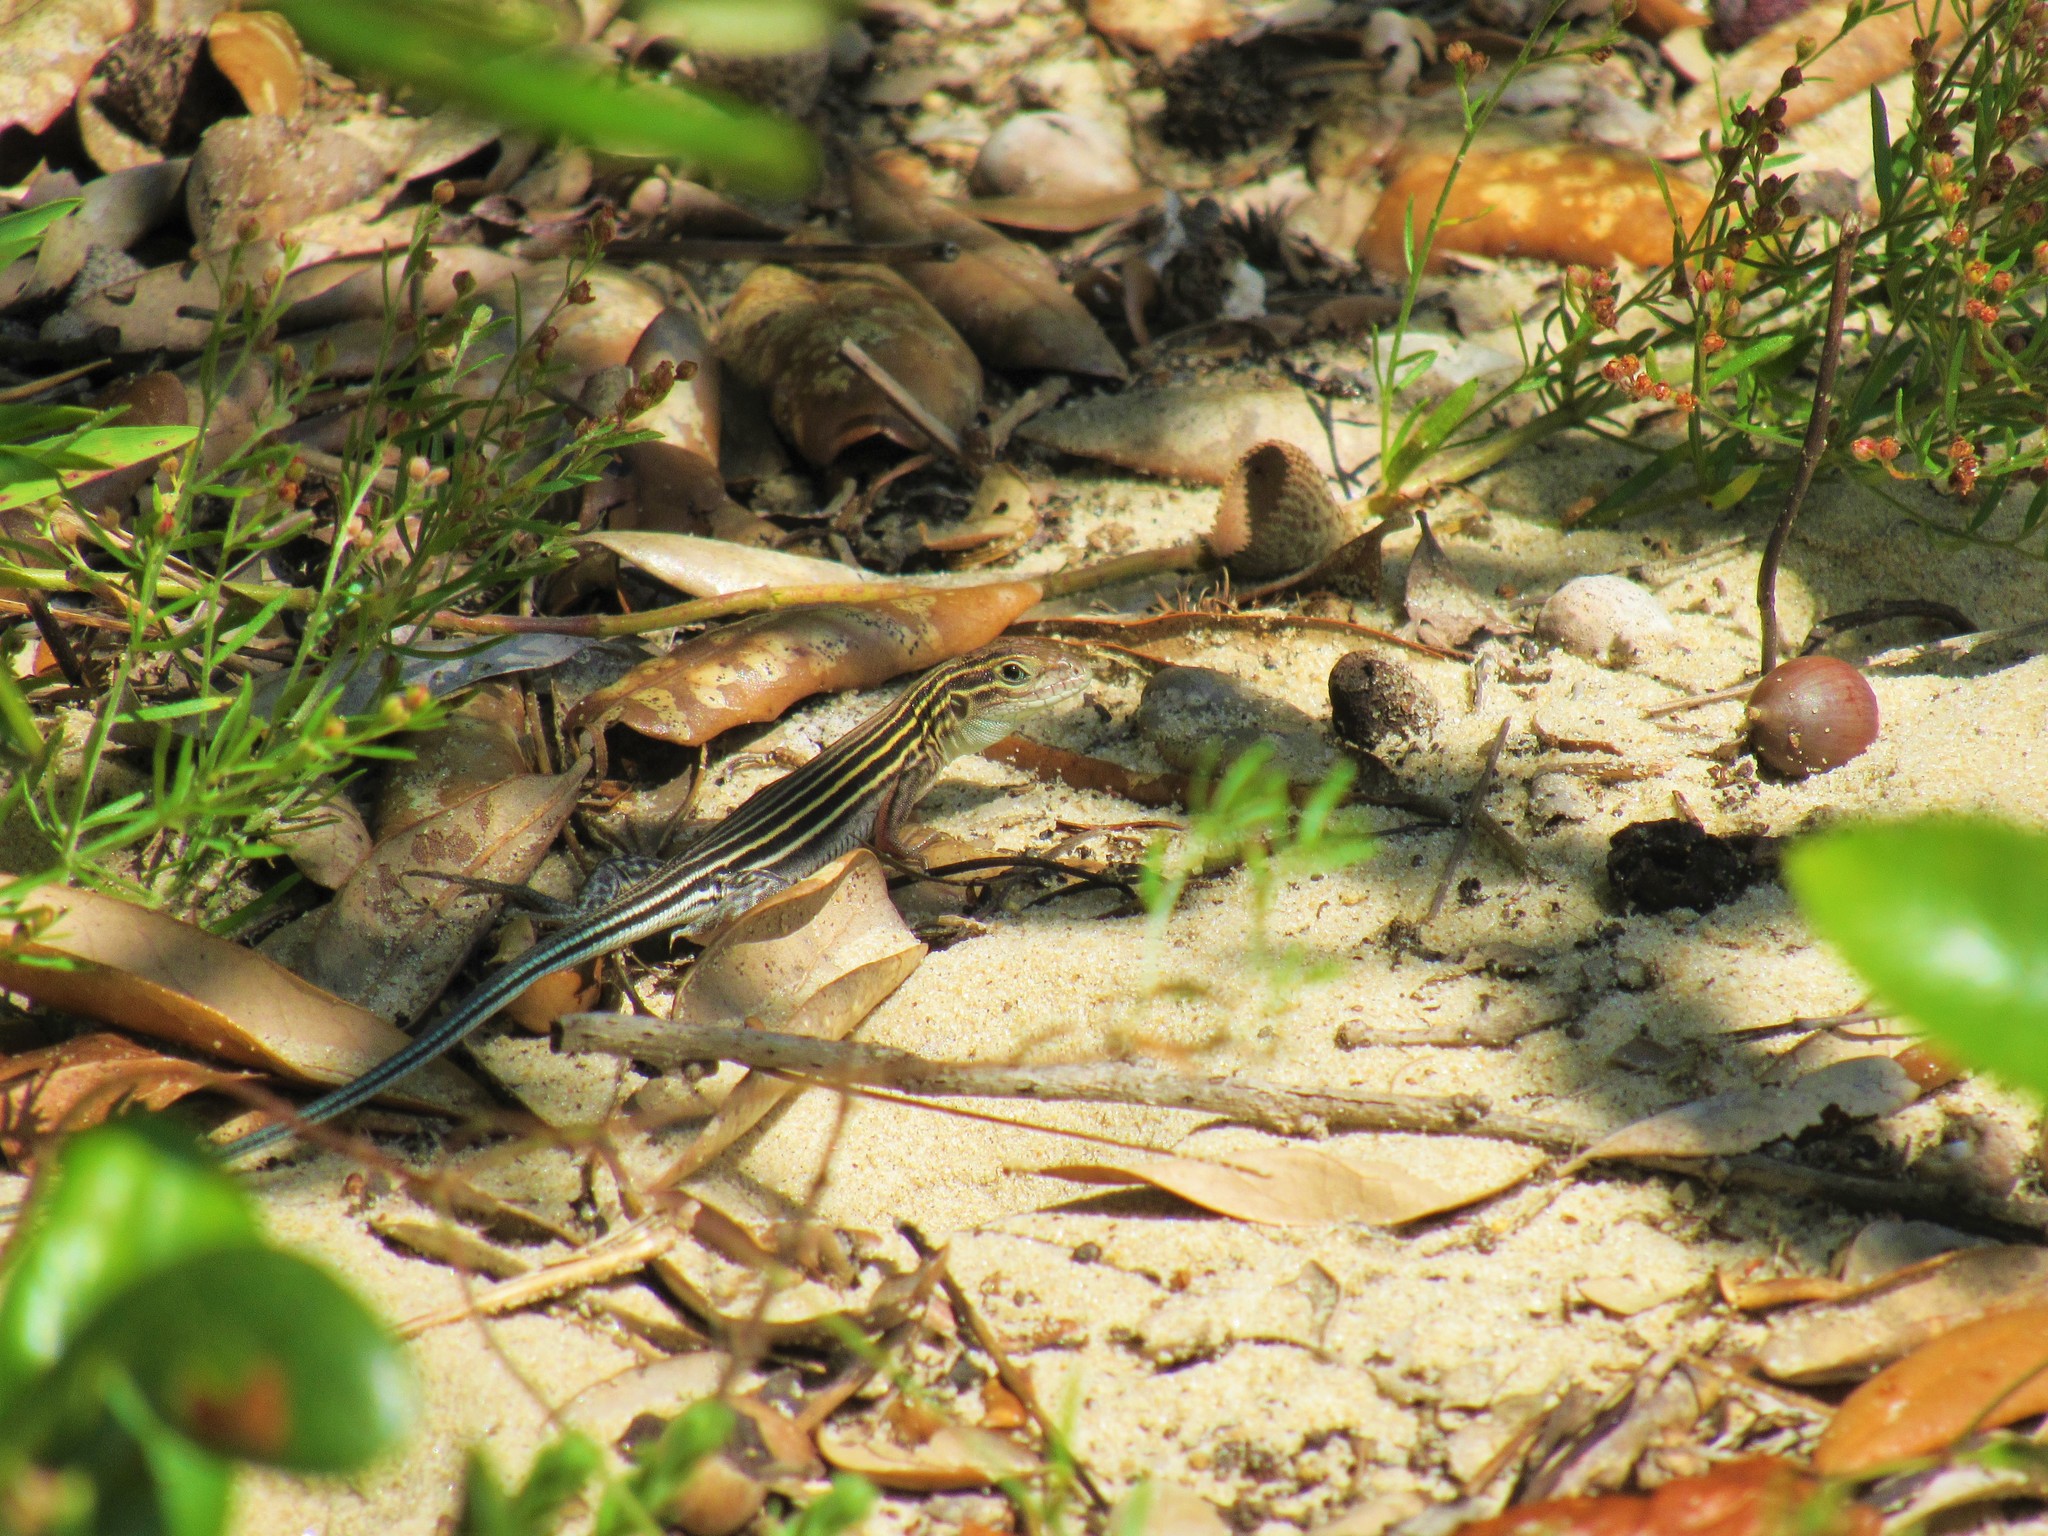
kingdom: Animalia
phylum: Chordata
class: Squamata
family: Teiidae
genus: Aspidoscelis
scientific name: Aspidoscelis sexlineatus
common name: Six-lined racerunner
